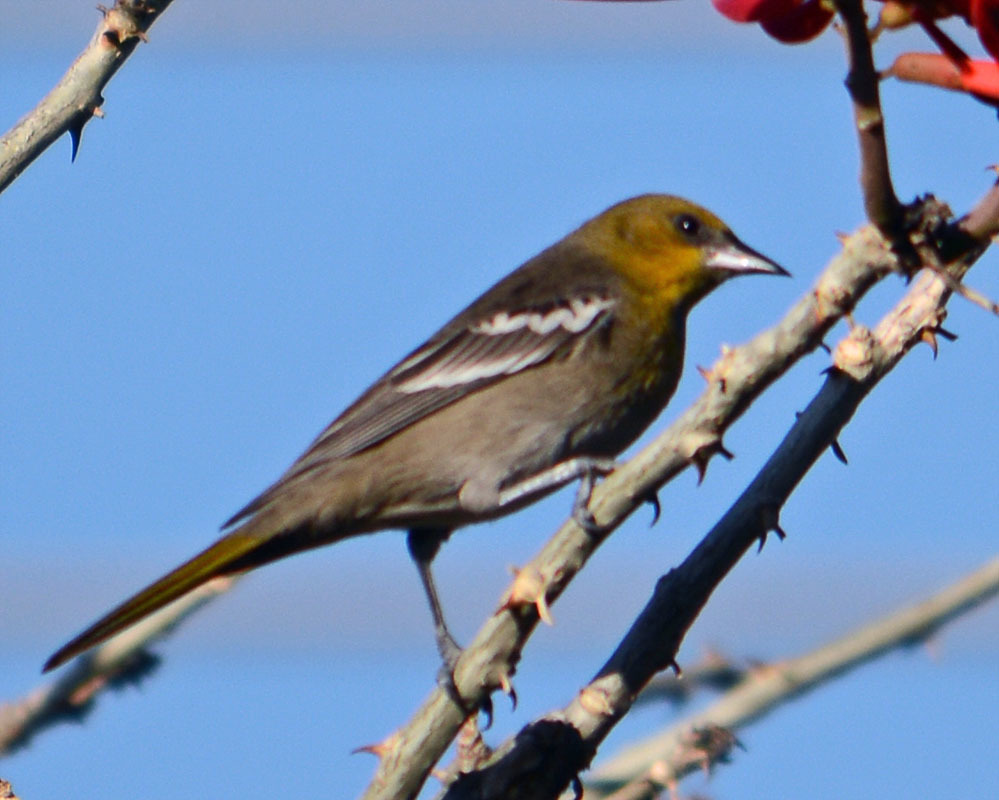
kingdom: Animalia
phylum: Chordata
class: Aves
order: Passeriformes
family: Icteridae
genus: Icterus
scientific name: Icterus bullockii
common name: Bullock's oriole
